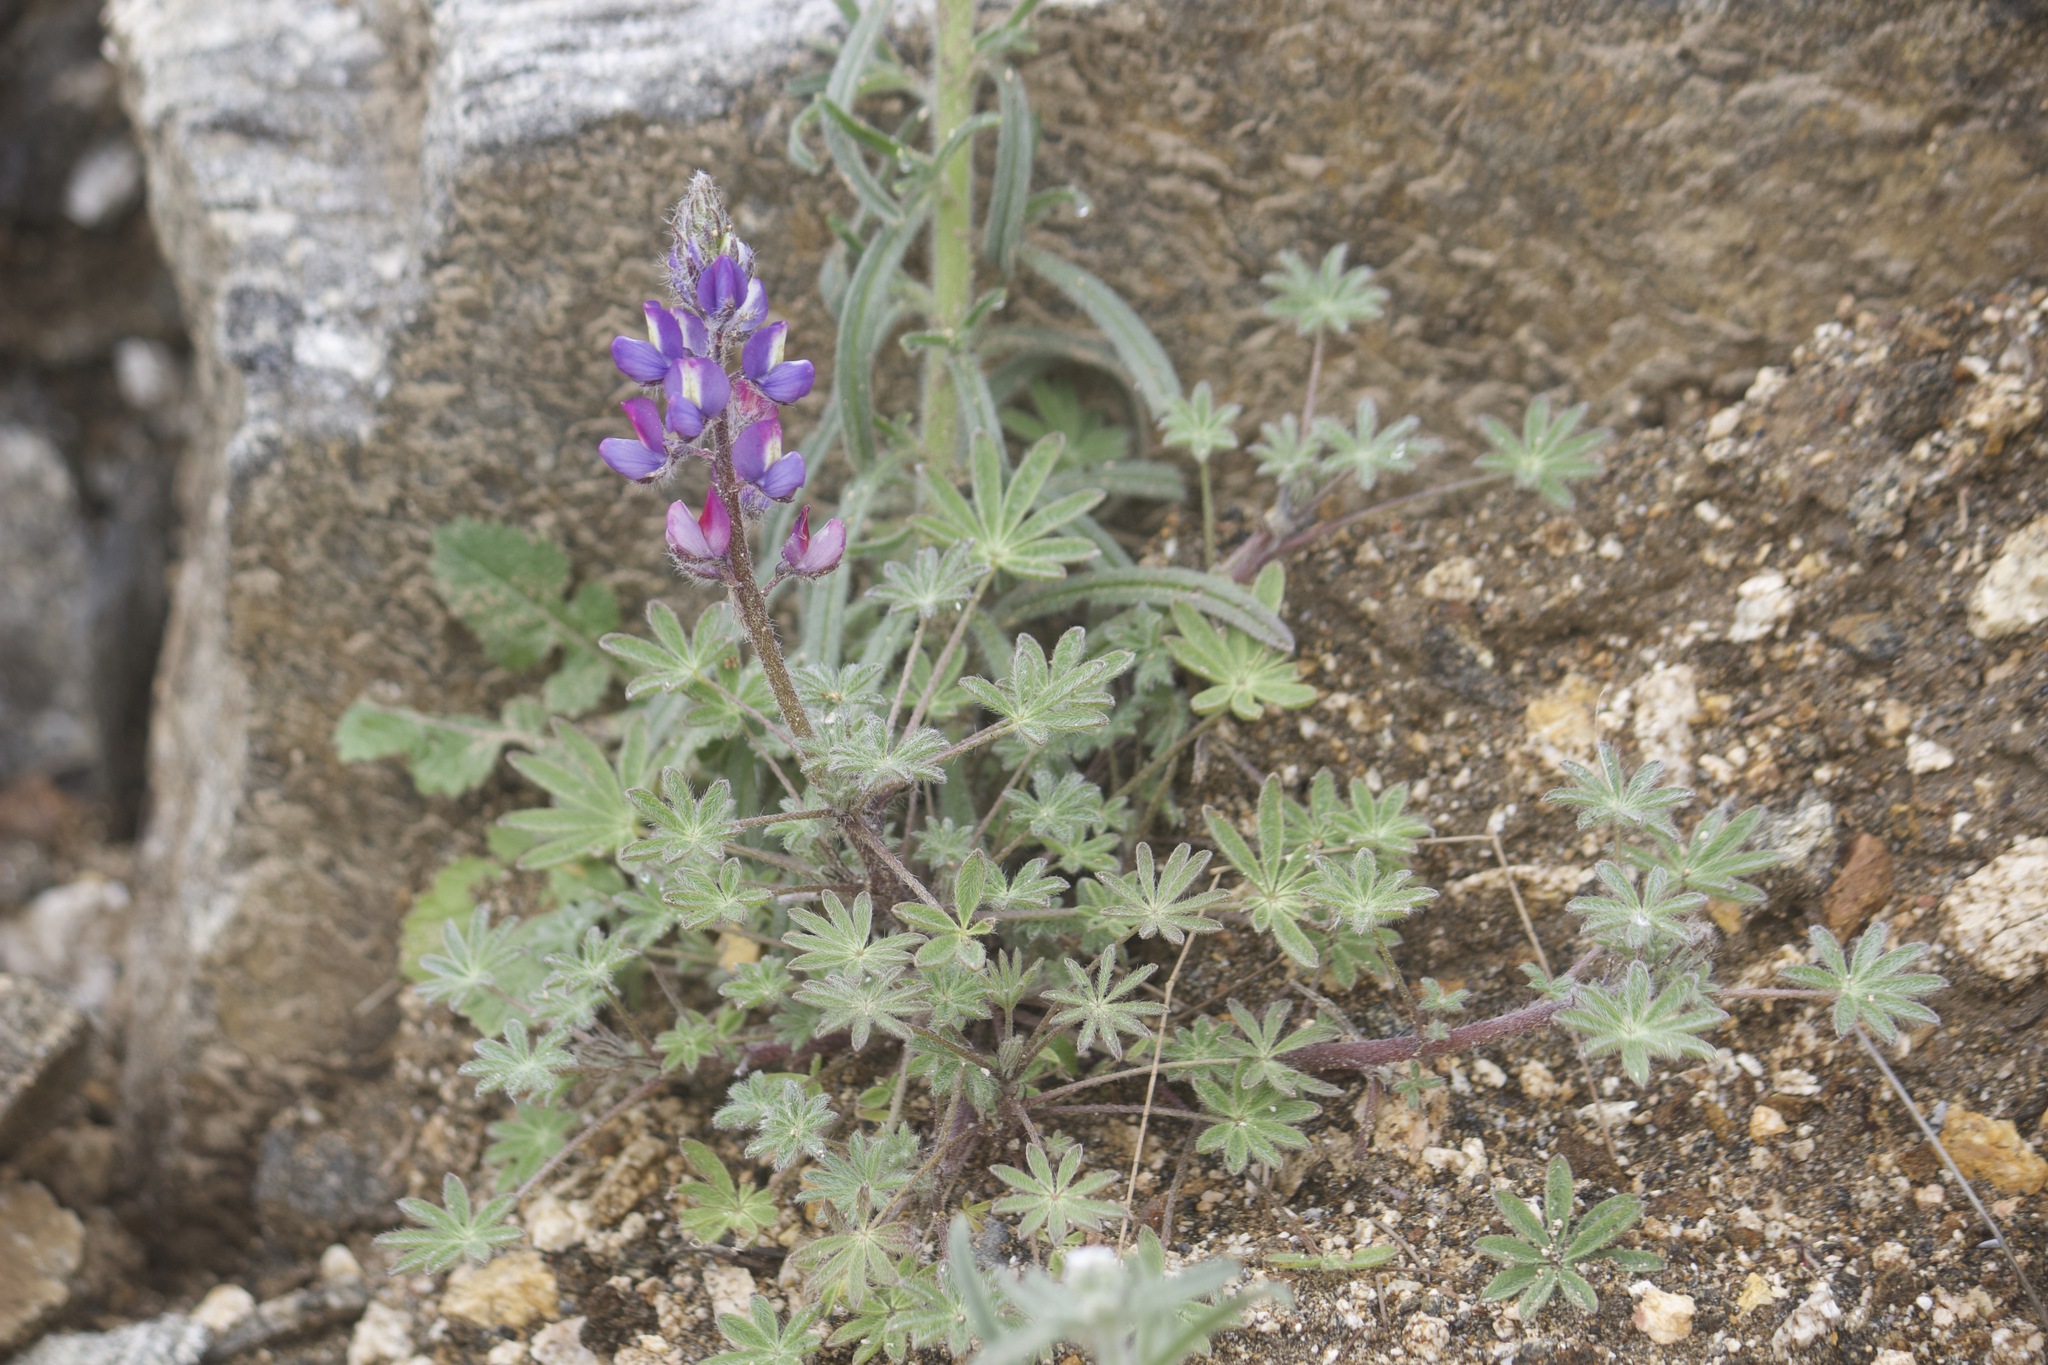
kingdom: Plantae
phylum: Tracheophyta
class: Magnoliopsida
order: Fabales
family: Fabaceae
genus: Lupinus
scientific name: Lupinus sparsiflorus
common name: Coulter's lupine
